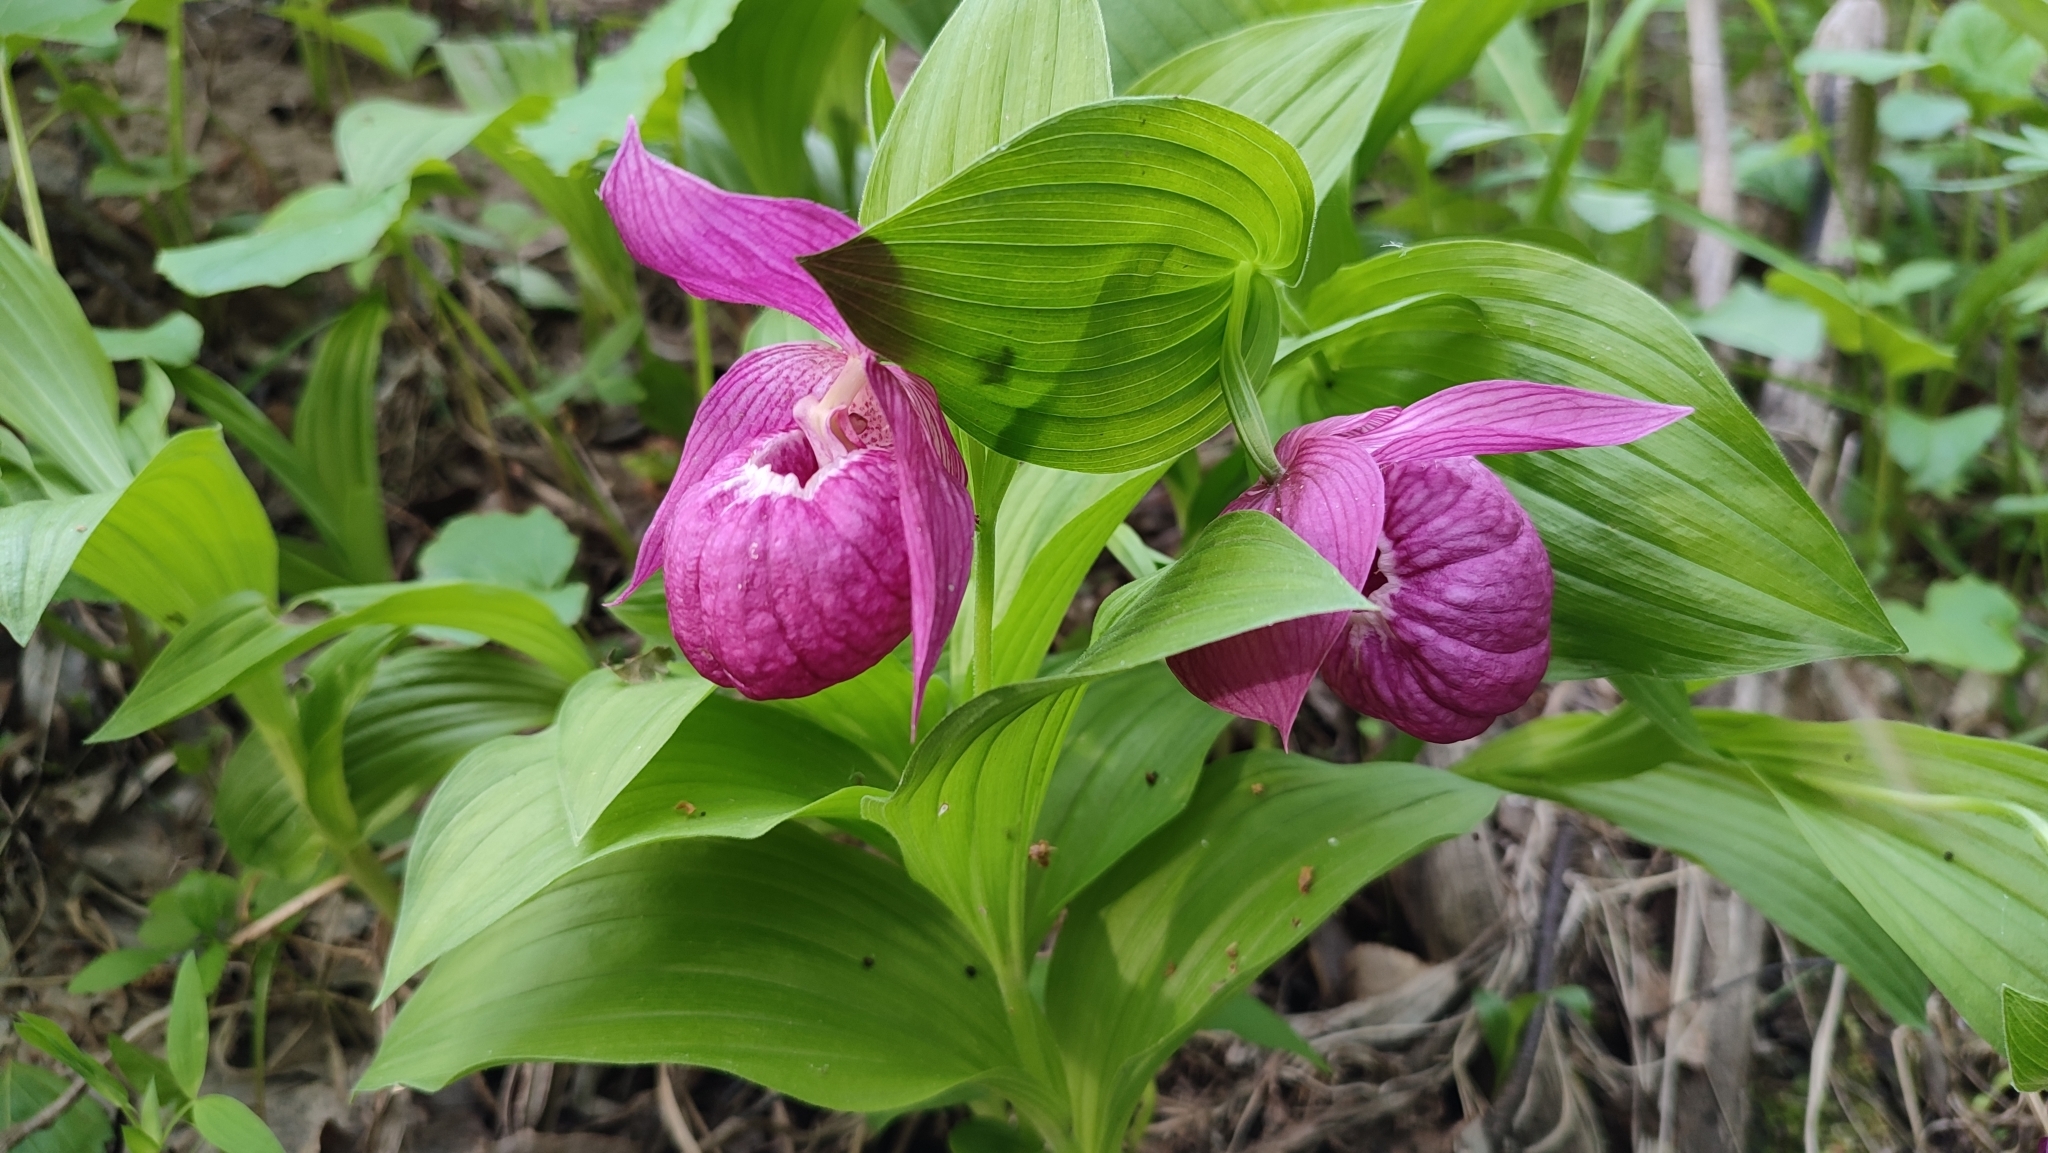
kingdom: Plantae
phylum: Tracheophyta
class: Liliopsida
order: Asparagales
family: Orchidaceae
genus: Cypripedium
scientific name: Cypripedium macranthos
